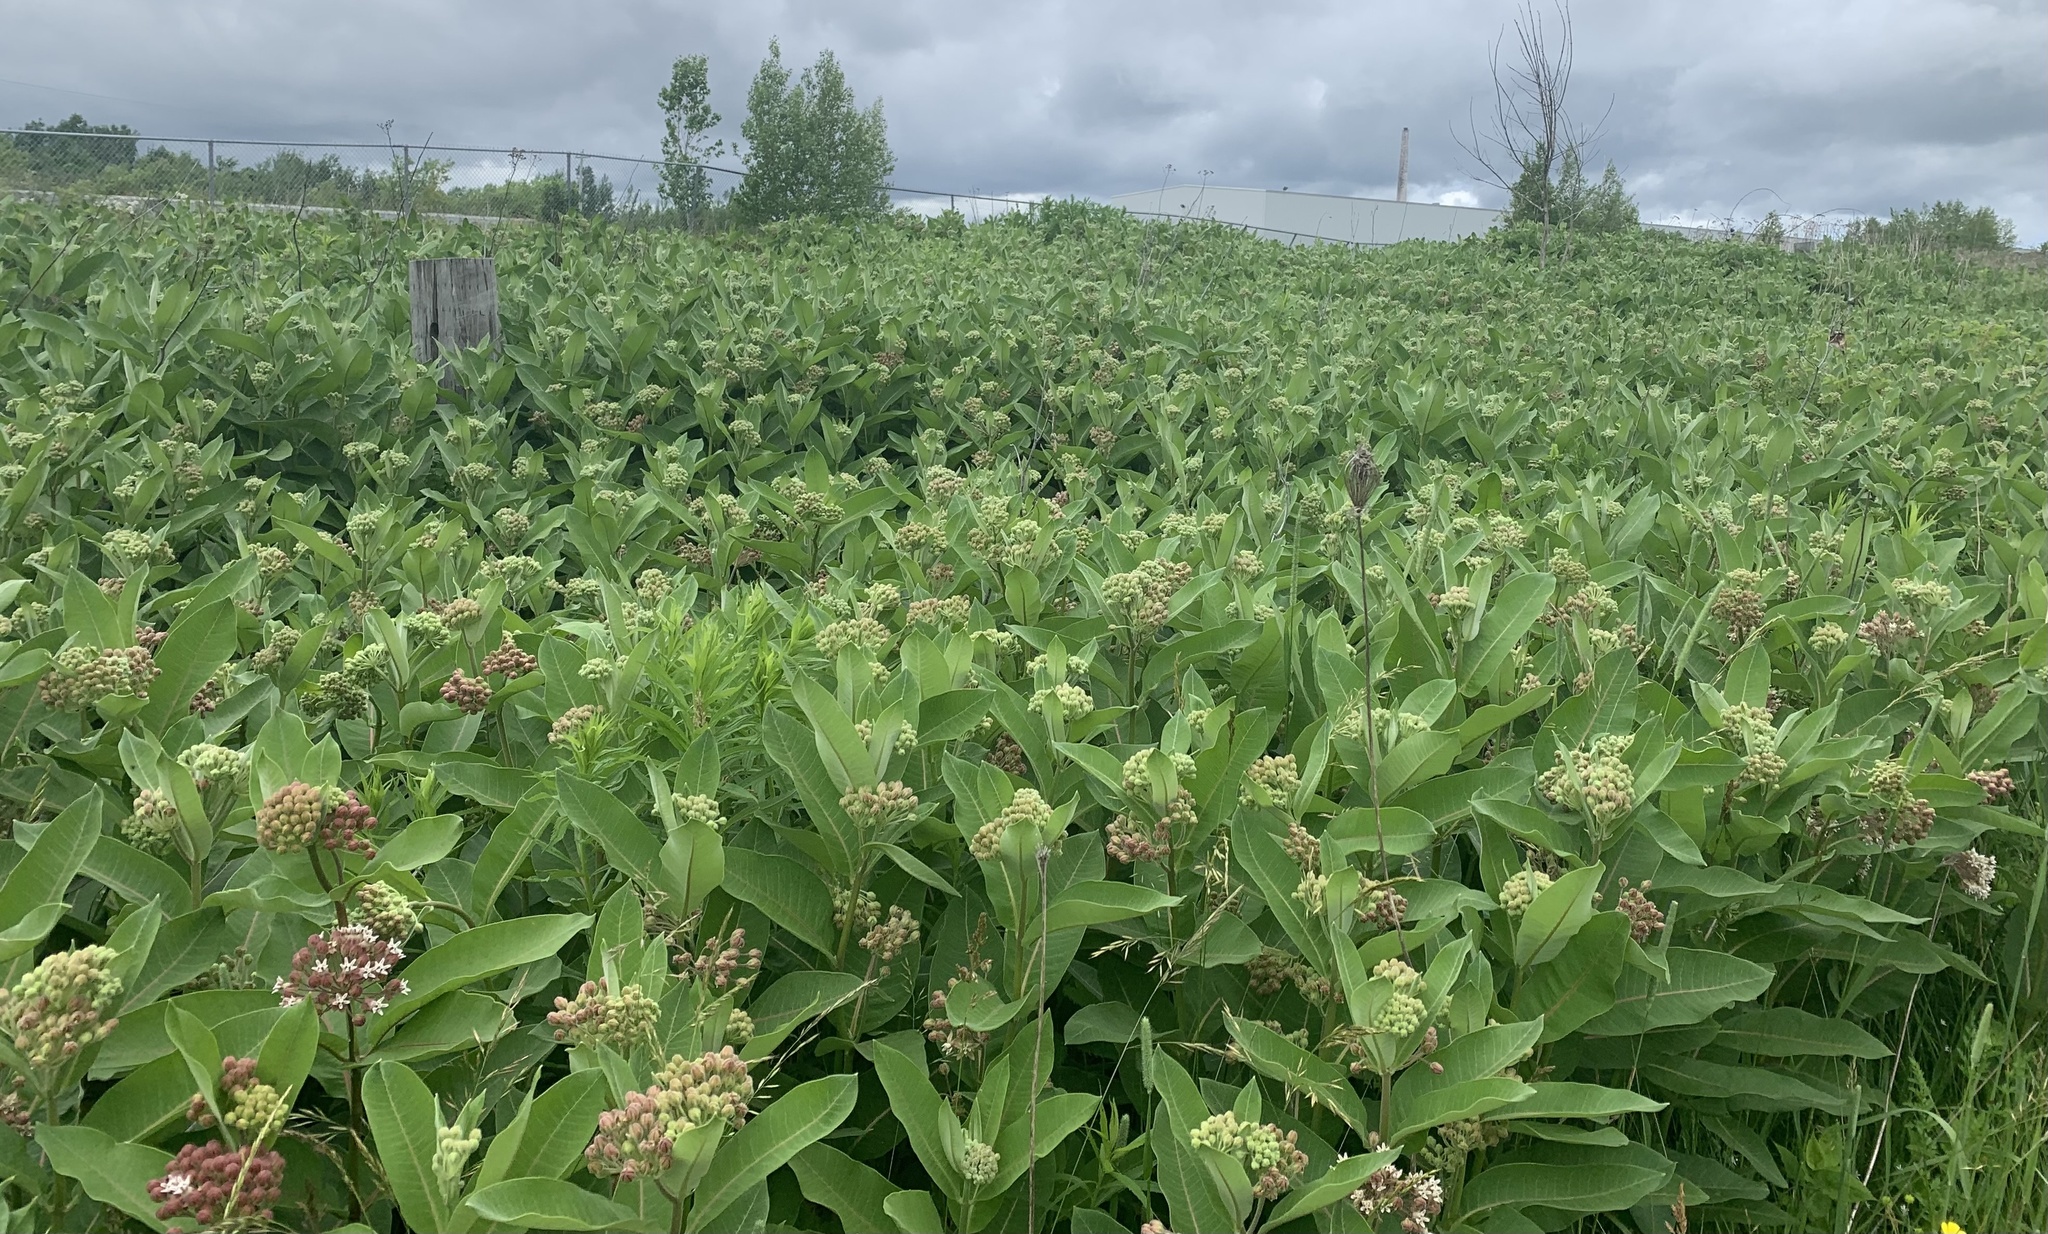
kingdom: Plantae
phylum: Tracheophyta
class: Magnoliopsida
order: Gentianales
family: Apocynaceae
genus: Asclepias
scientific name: Asclepias syriaca
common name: Common milkweed
